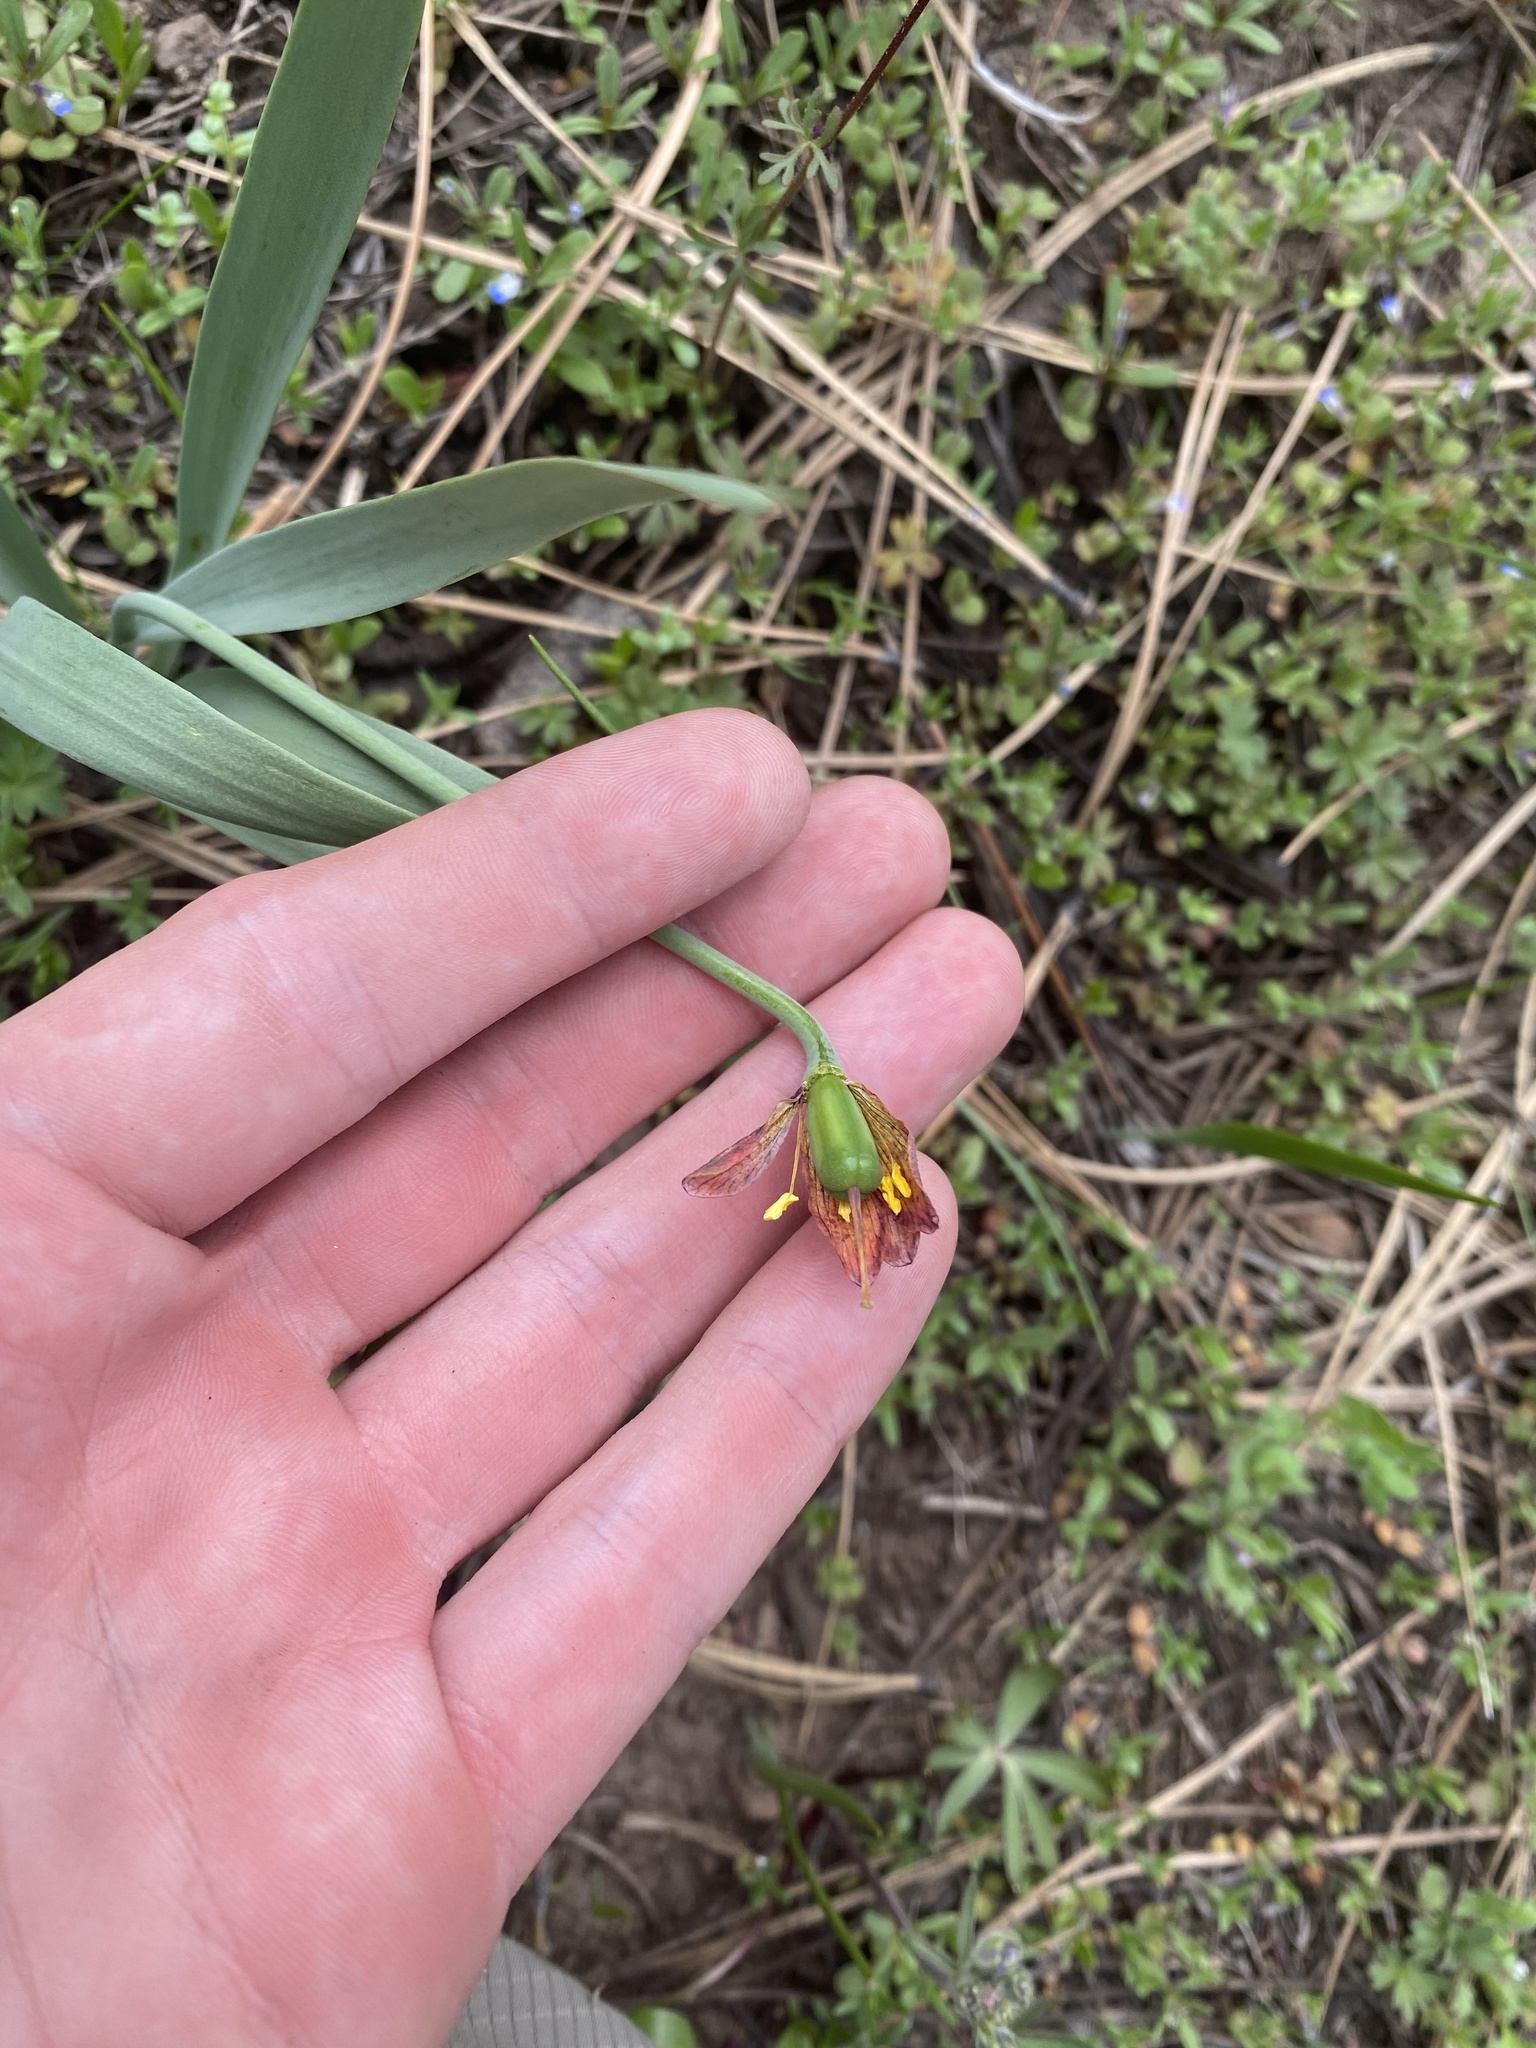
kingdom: Plantae
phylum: Tracheophyta
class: Liliopsida
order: Liliales
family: Liliaceae
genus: Fritillaria
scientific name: Fritillaria pudica
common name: Yellow fritillary
